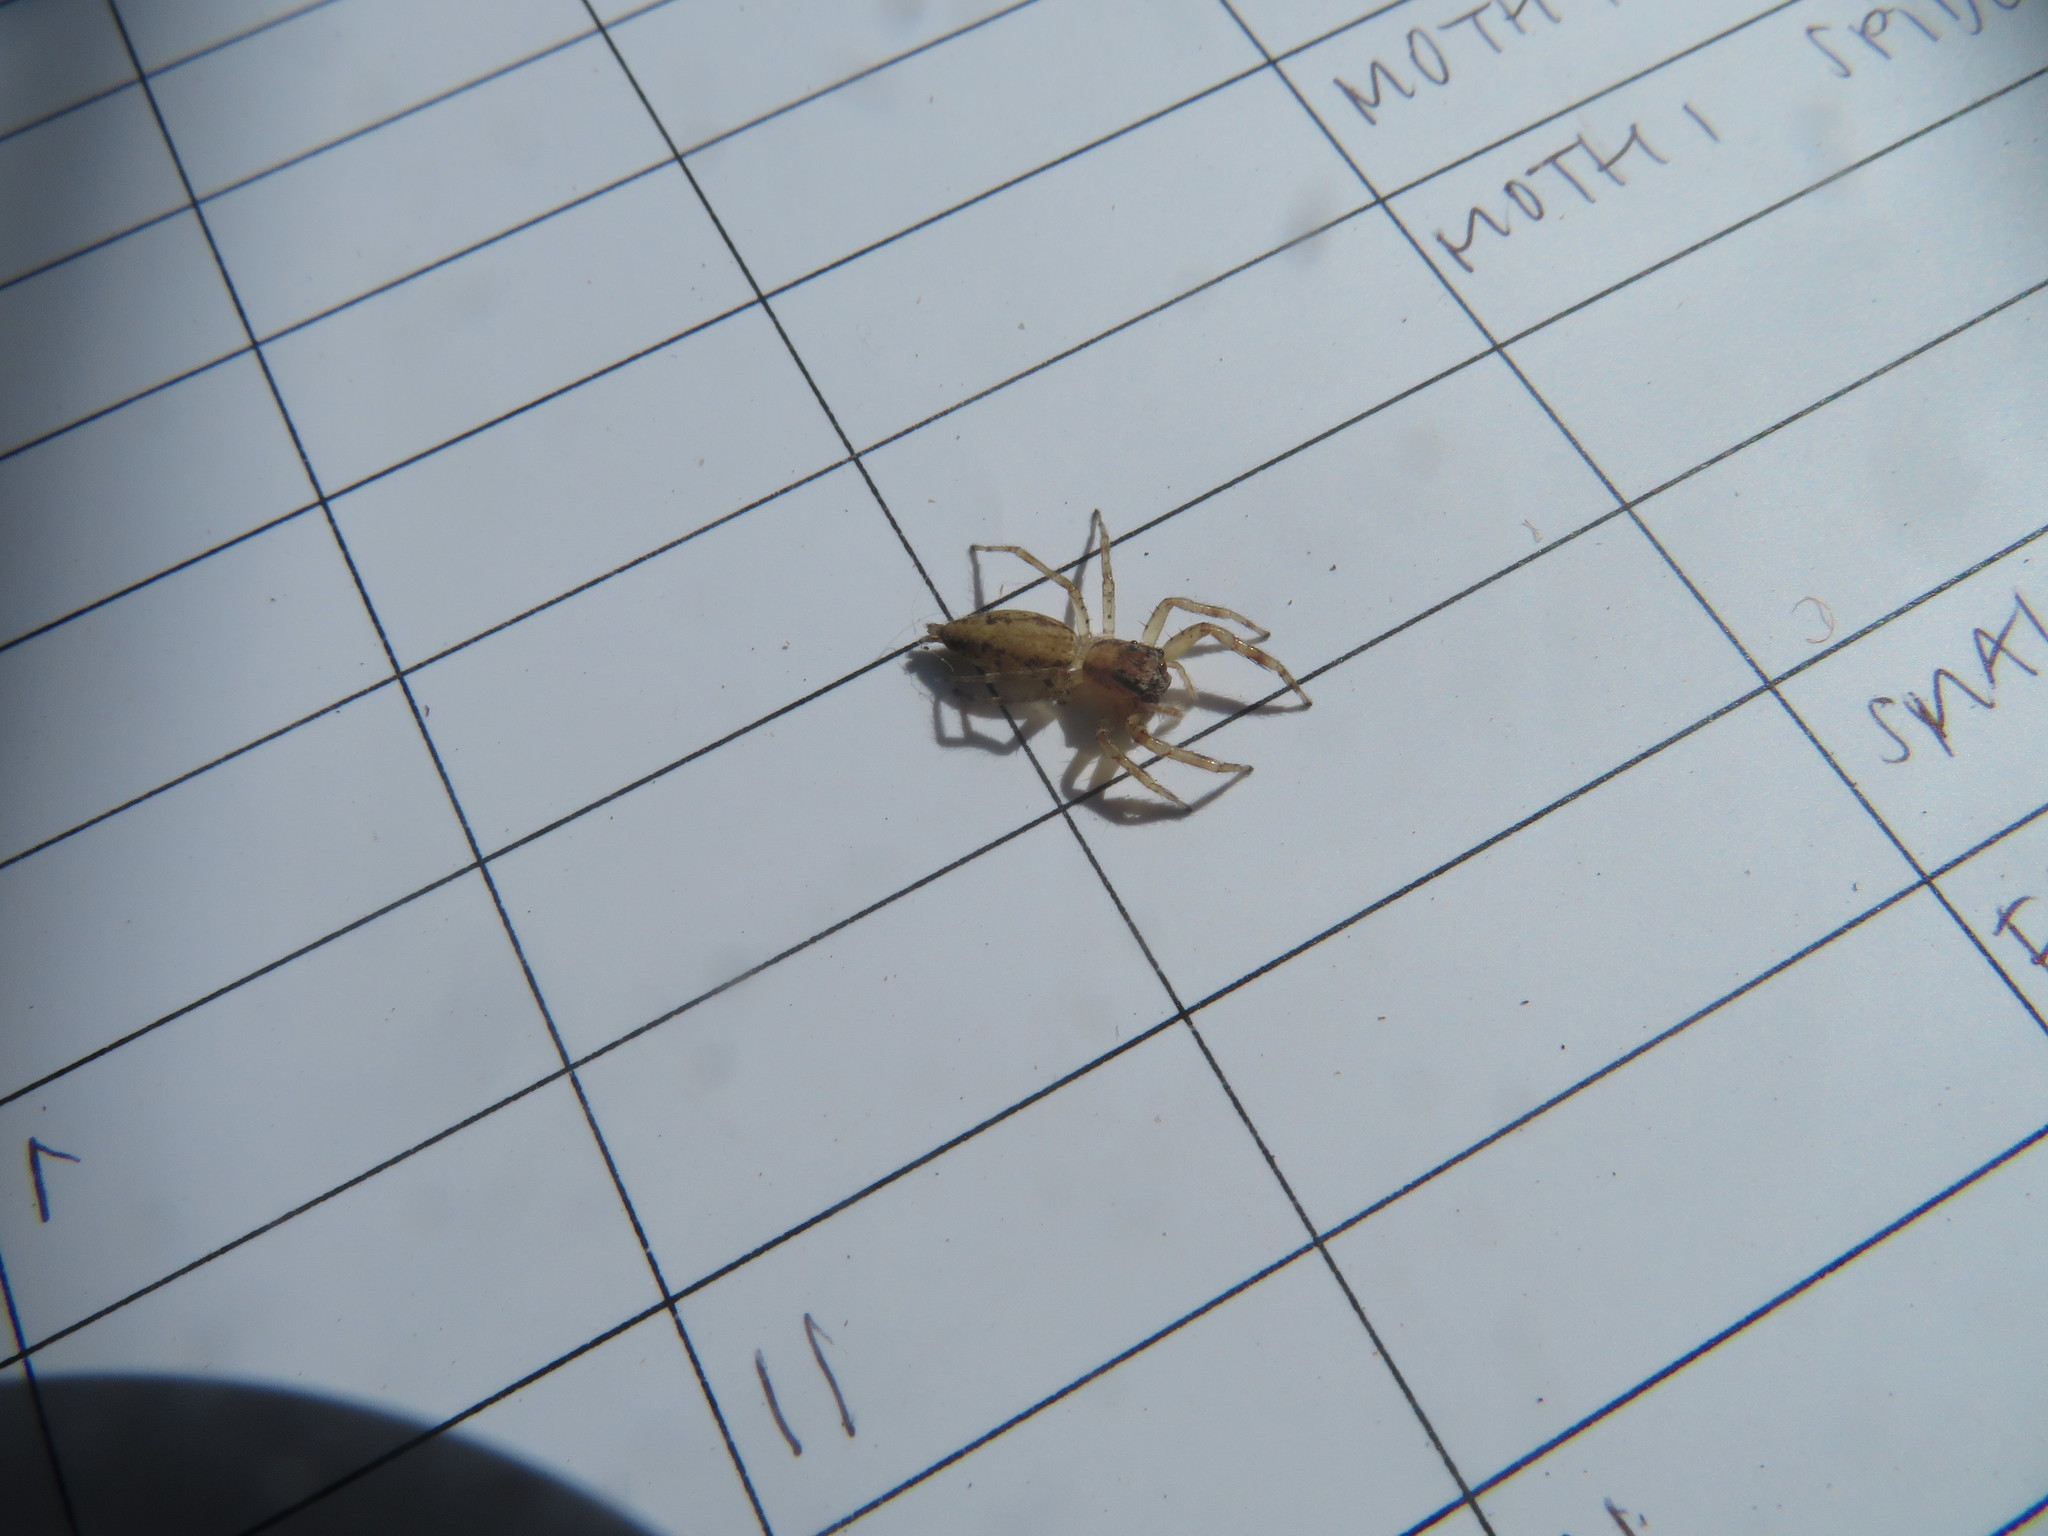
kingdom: Animalia
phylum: Arthropoda
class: Arachnida
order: Araneae
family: Salticidae
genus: Helpis
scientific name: Helpis minitabunda
